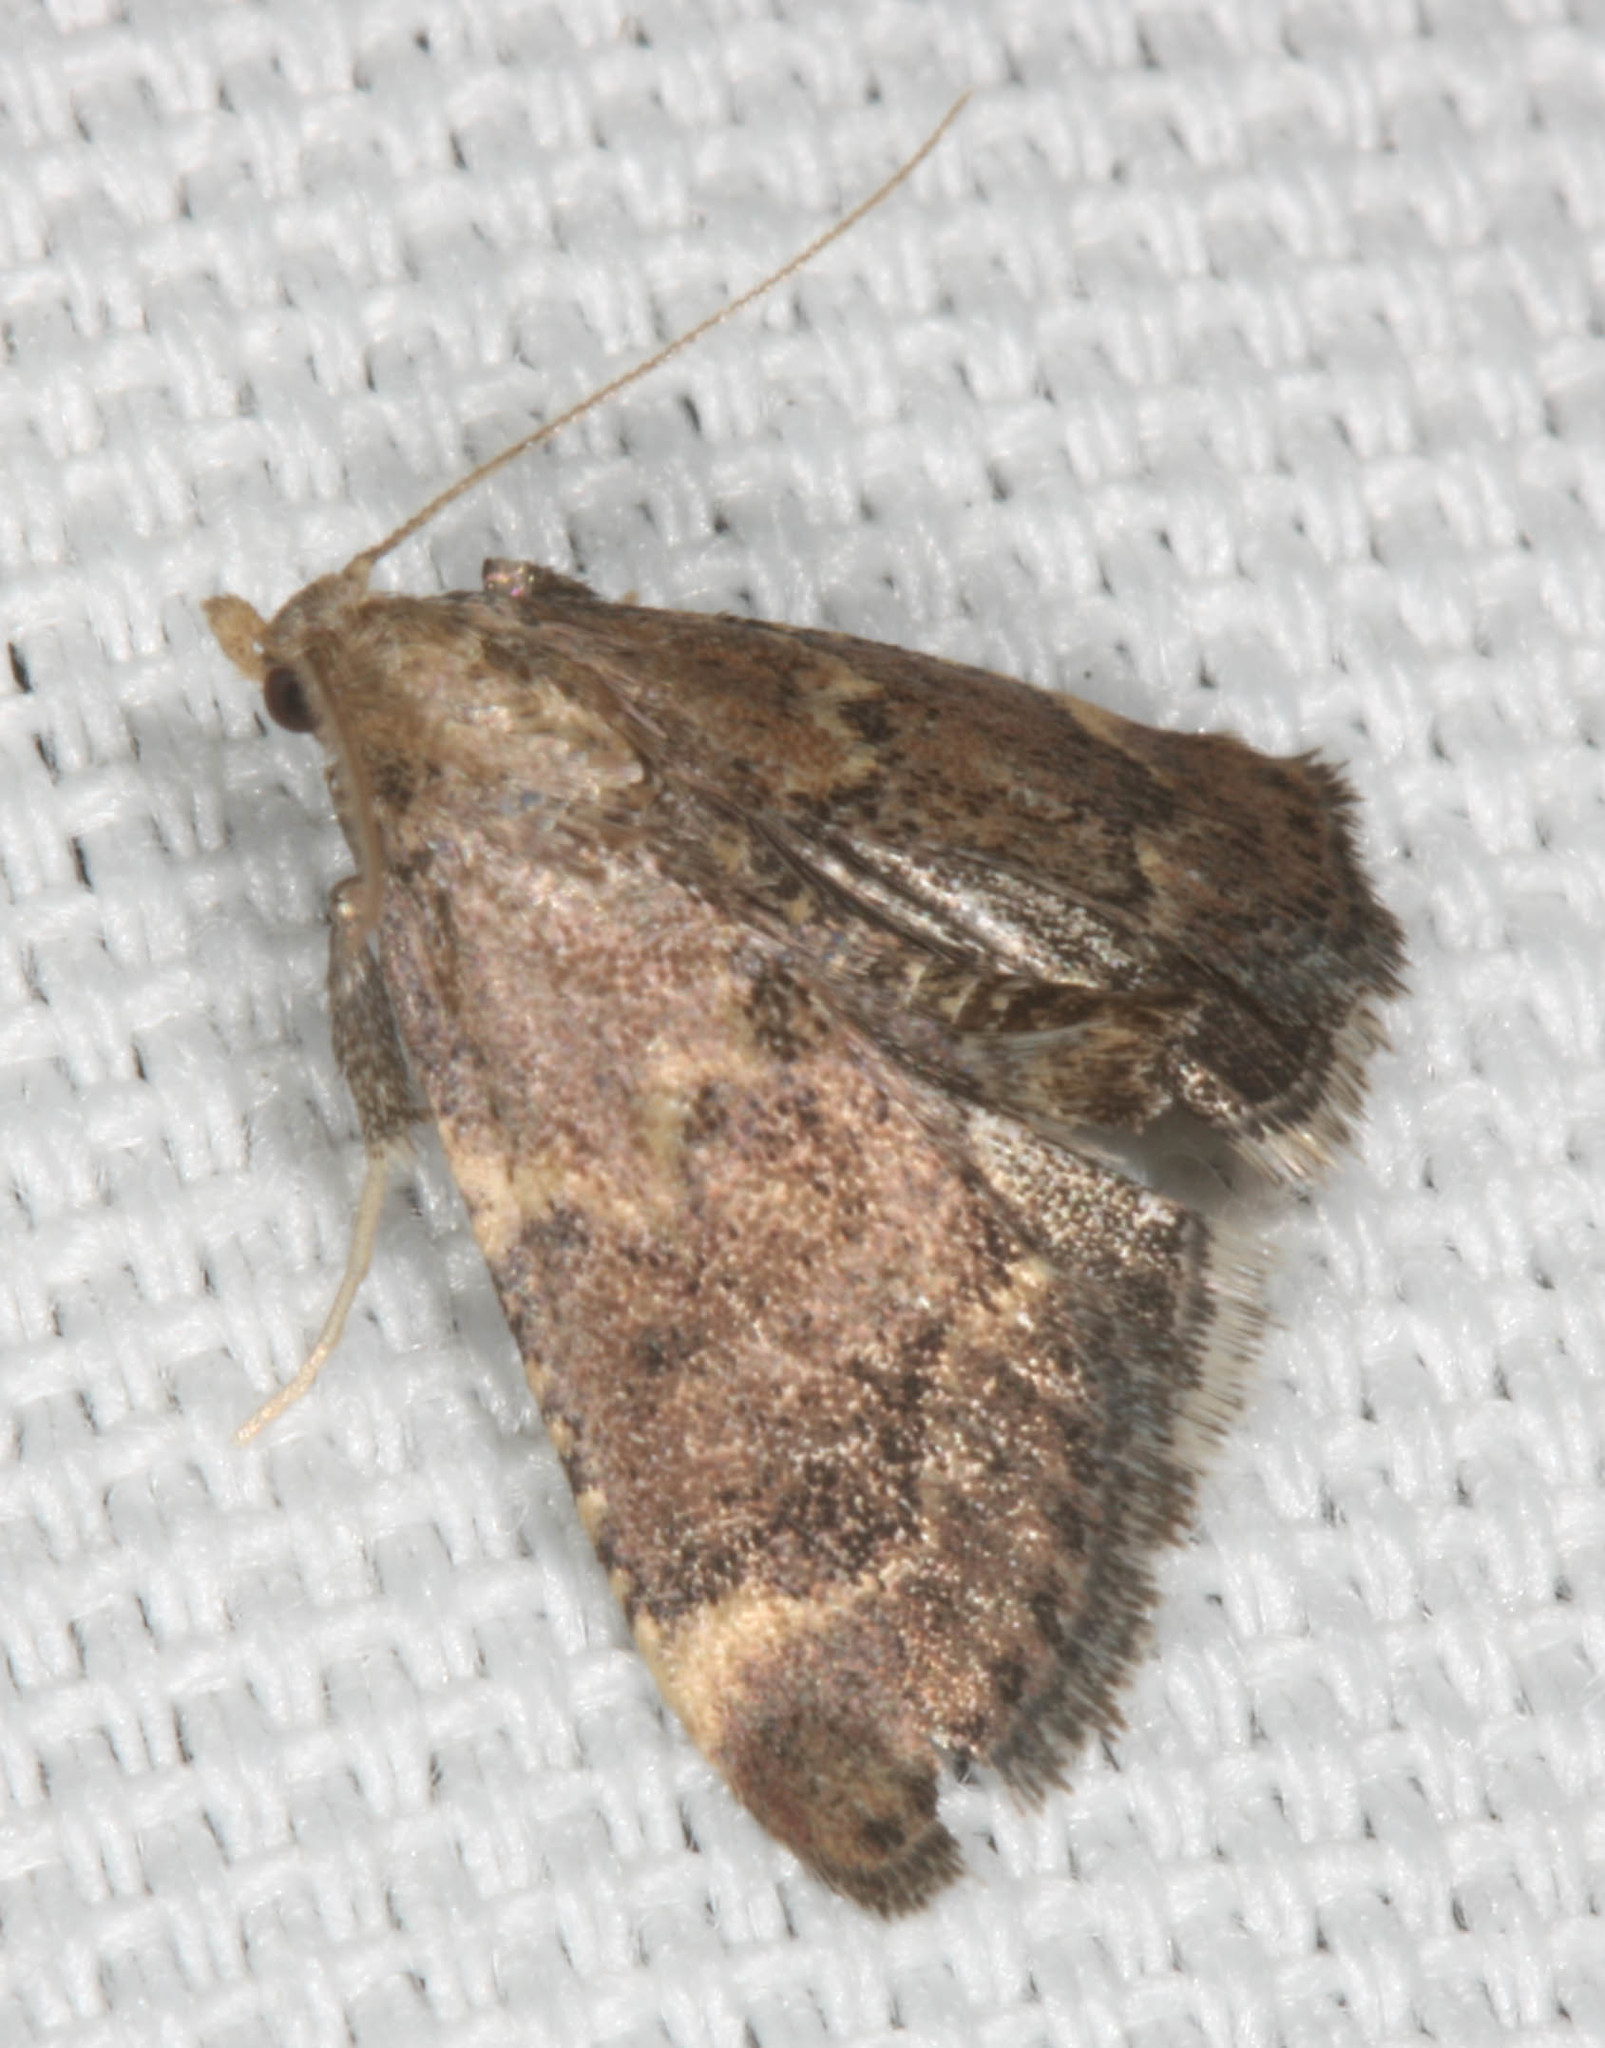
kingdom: Animalia
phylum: Arthropoda
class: Insecta
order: Lepidoptera
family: Pyralidae
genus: Hypsopygia
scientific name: Hypsopygia phoezalis
